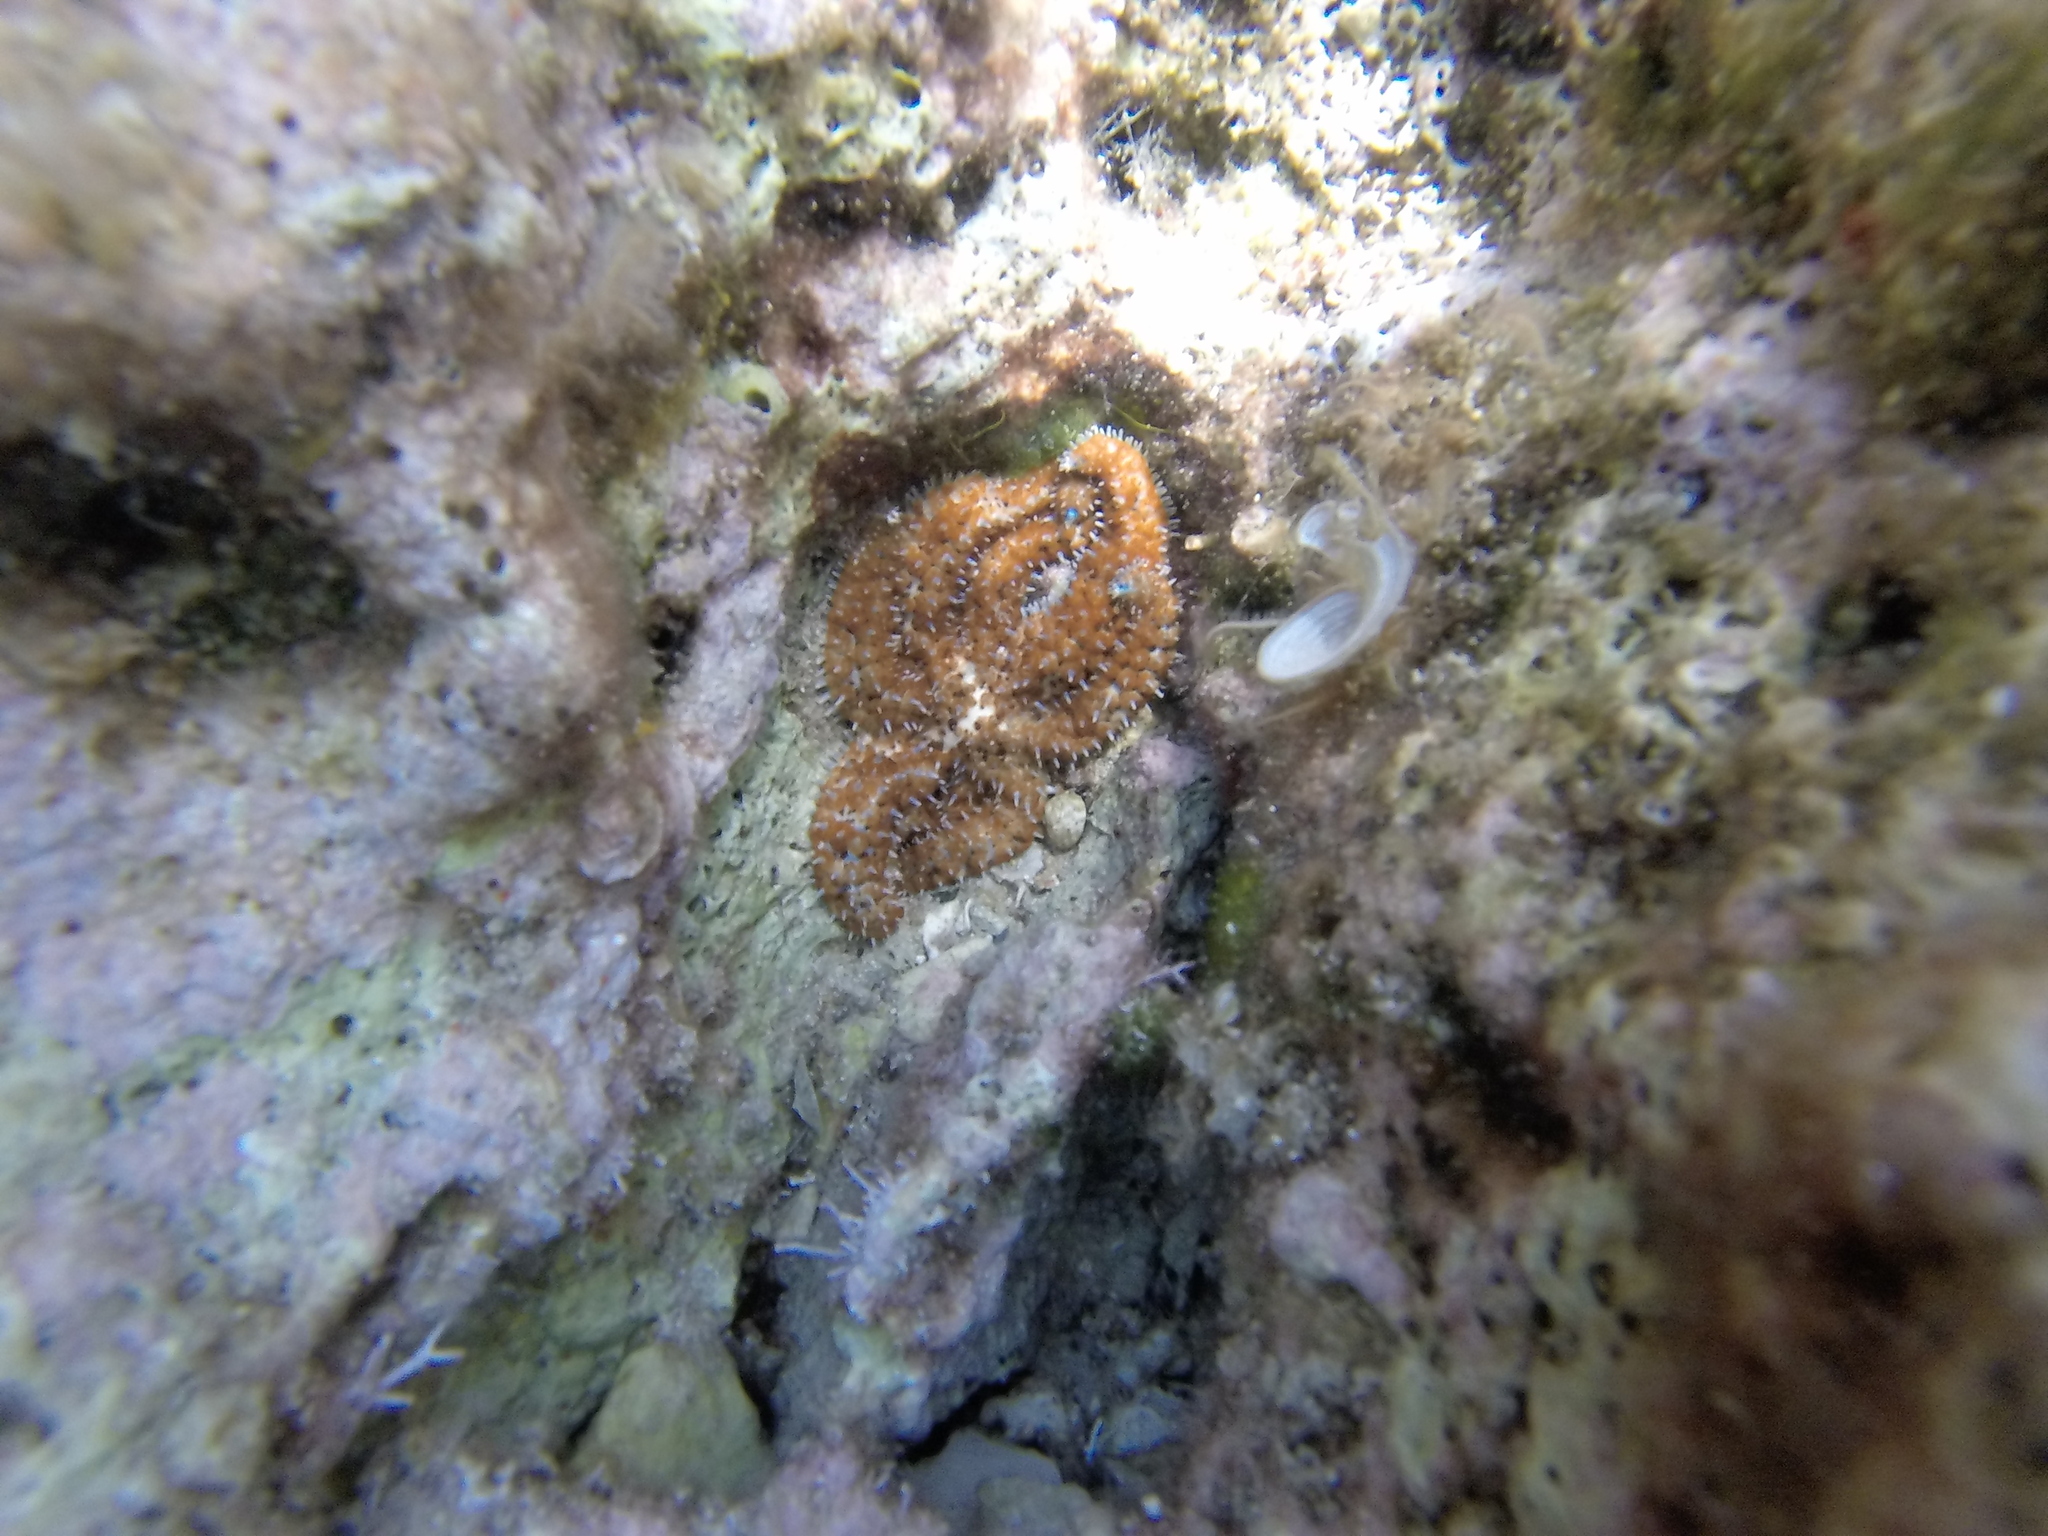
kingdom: Animalia
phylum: Echinodermata
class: Asteroidea
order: Forcipulatida
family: Asteriidae
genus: Coscinasterias
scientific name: Coscinasterias tenuispina
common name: Blue spiny starfish
